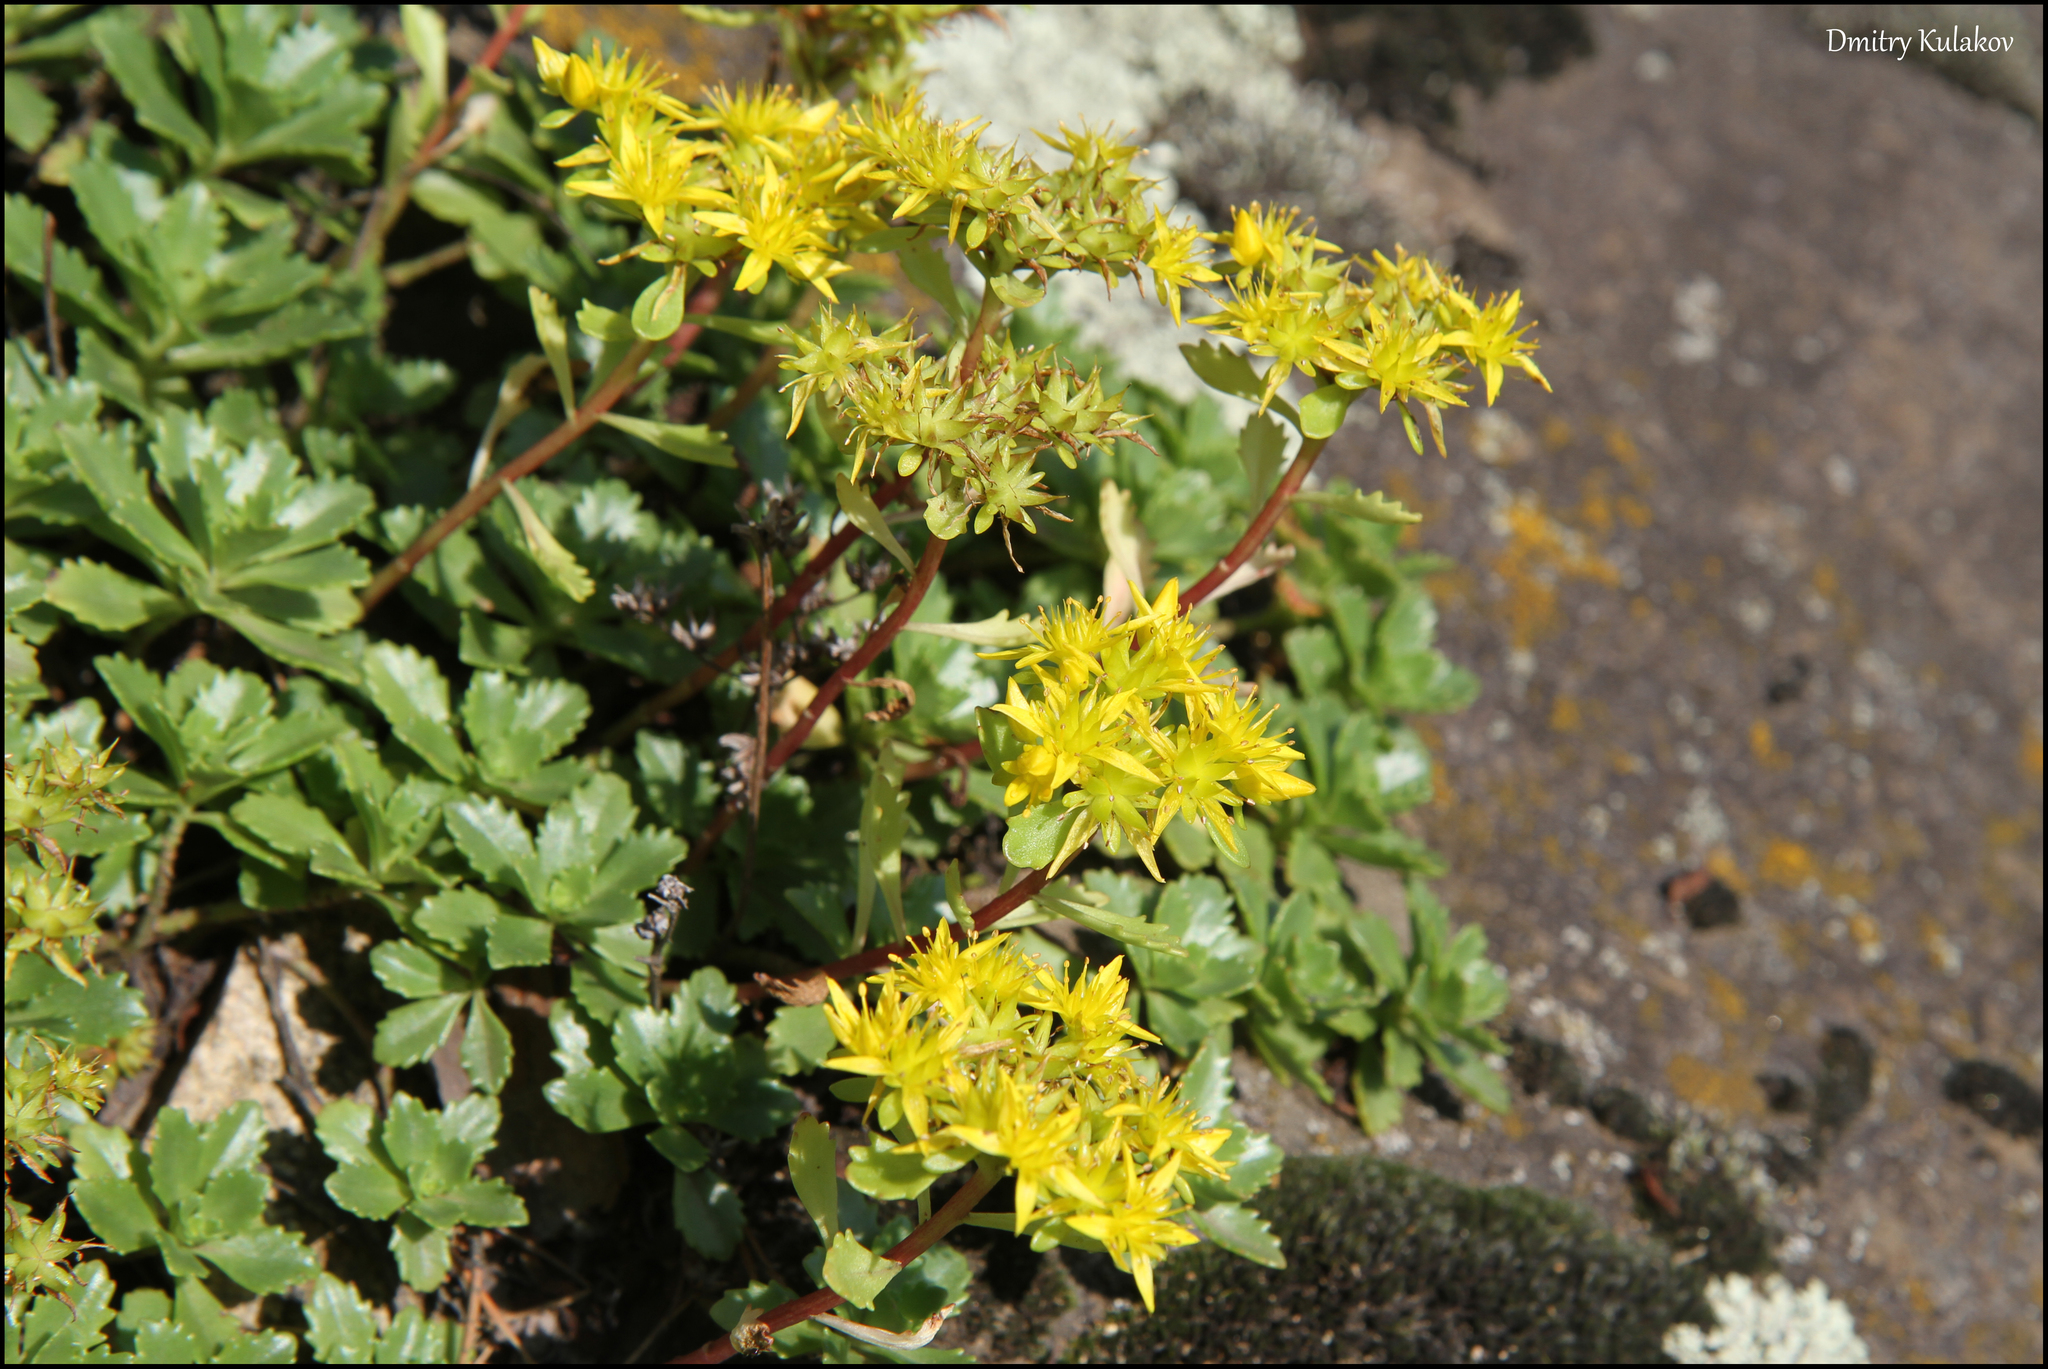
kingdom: Plantae
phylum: Tracheophyta
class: Magnoliopsida
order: Saxifragales
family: Crassulaceae
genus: Phedimus
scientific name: Phedimus hybridus
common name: Hybrid stonecrop
